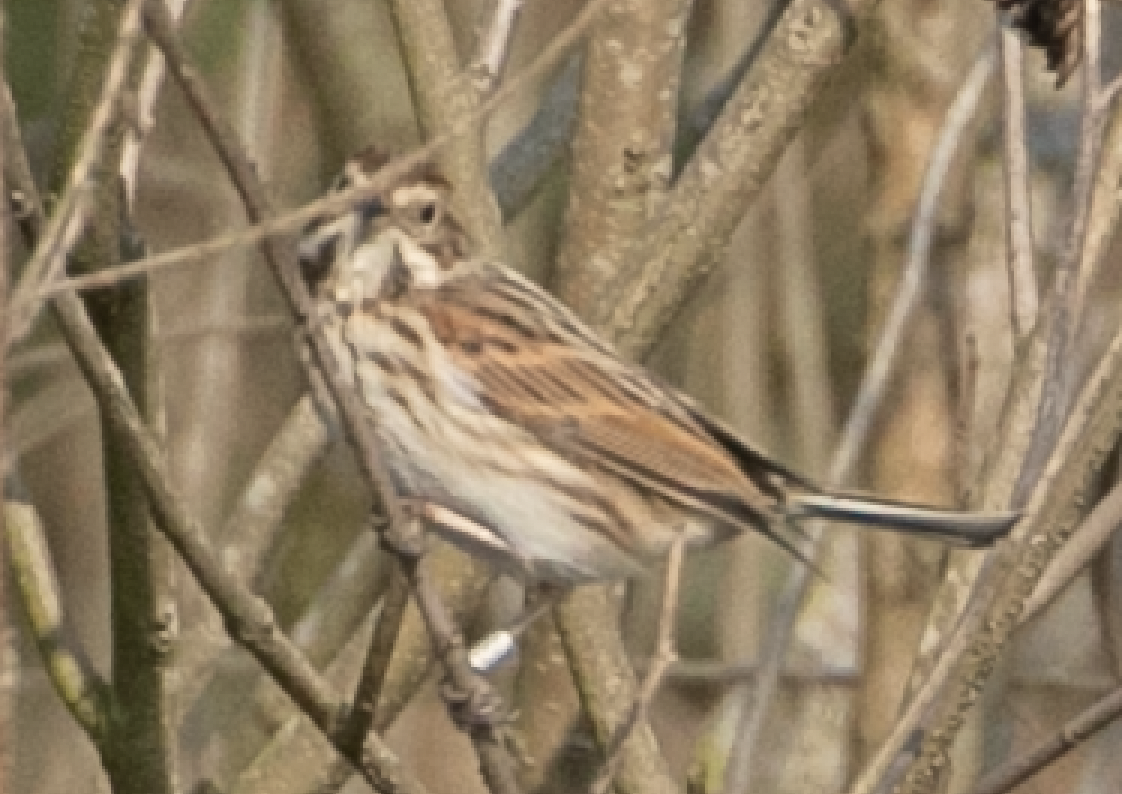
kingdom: Animalia
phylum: Chordata
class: Aves
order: Passeriformes
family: Emberizidae
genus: Emberiza
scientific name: Emberiza schoeniclus
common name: Reed bunting
